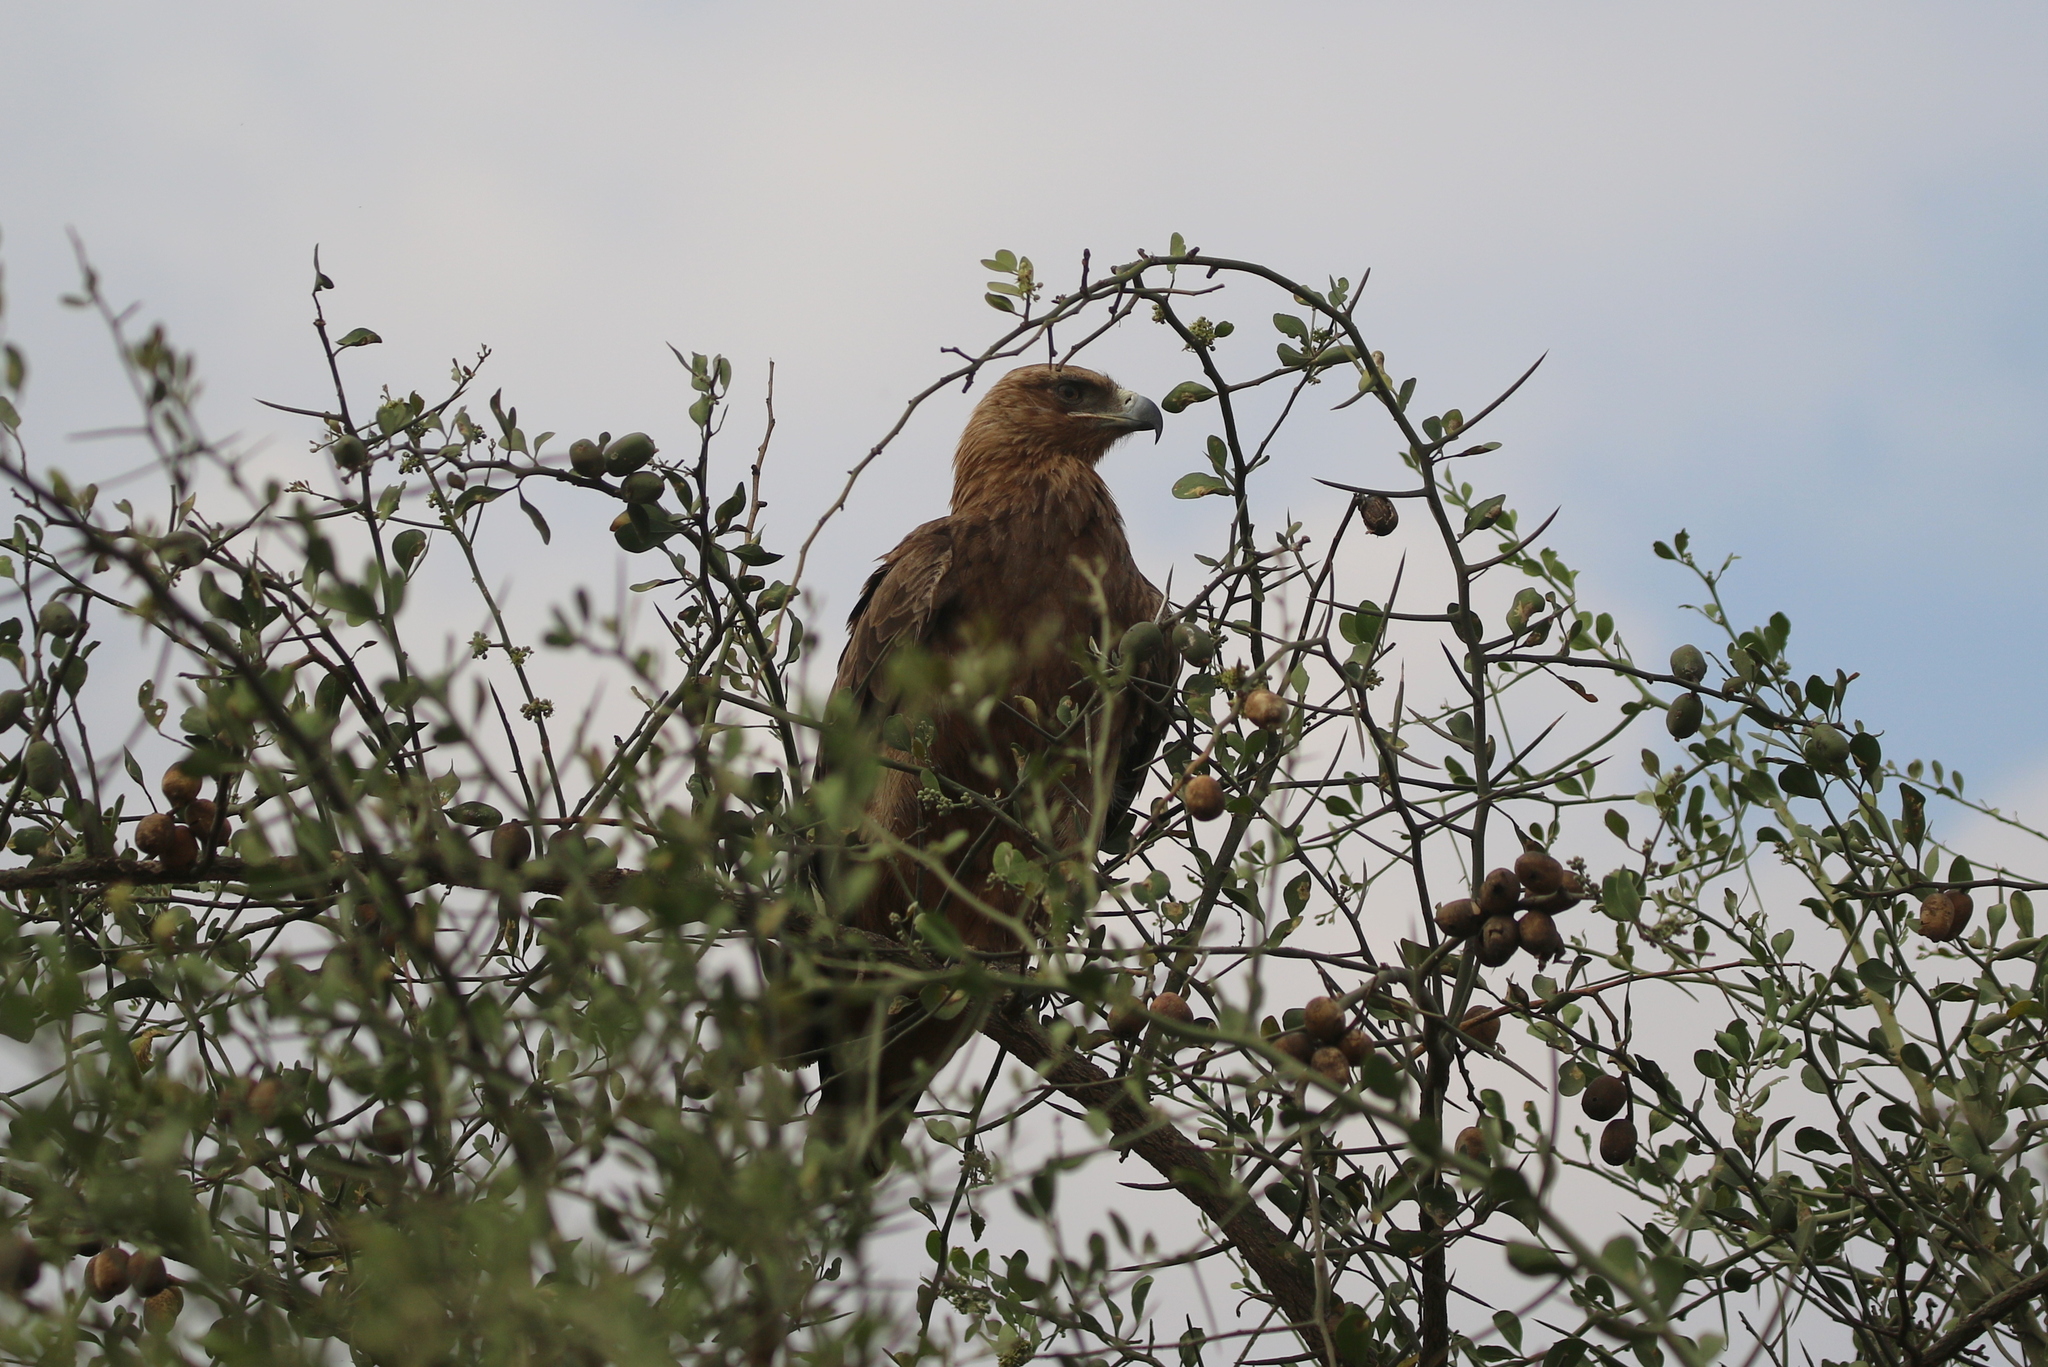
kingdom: Animalia
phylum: Chordata
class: Aves
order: Accipitriformes
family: Accipitridae
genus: Aquila
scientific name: Aquila rapax
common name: Tawny eagle
